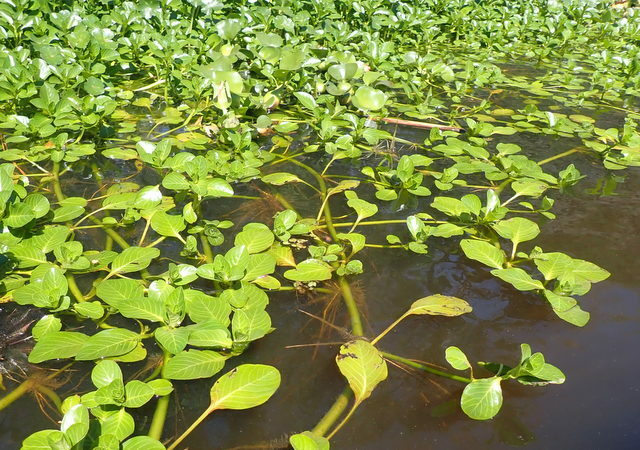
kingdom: Plantae
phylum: Tracheophyta
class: Magnoliopsida
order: Myrtales
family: Onagraceae
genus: Ludwigia
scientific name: Ludwigia peploides
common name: Floating primrose-willow
